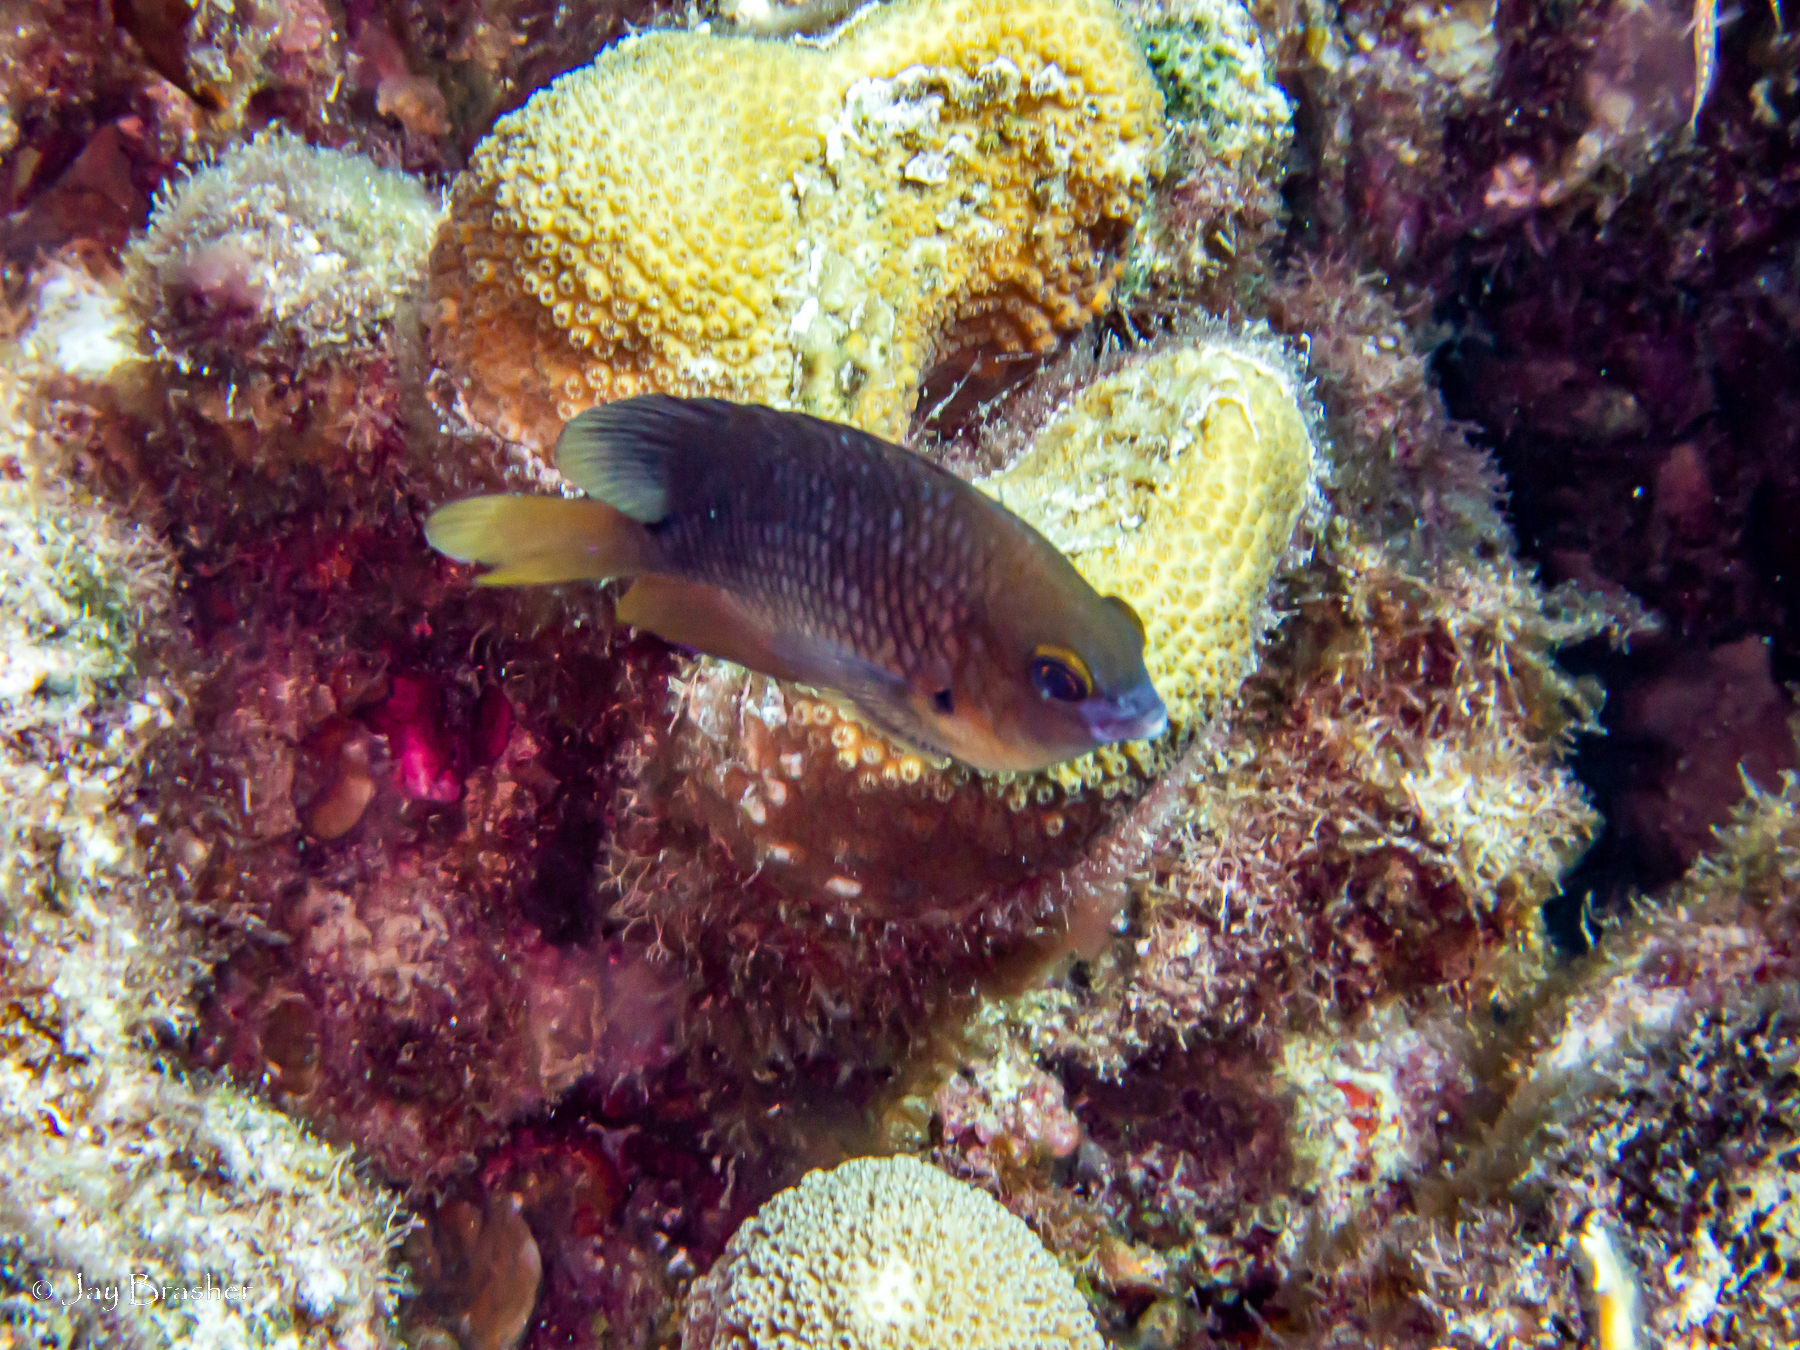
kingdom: Animalia
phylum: Chordata
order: Perciformes
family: Pomacentridae
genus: Stegastes
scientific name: Stegastes planifrons
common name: Threespot damselfish
